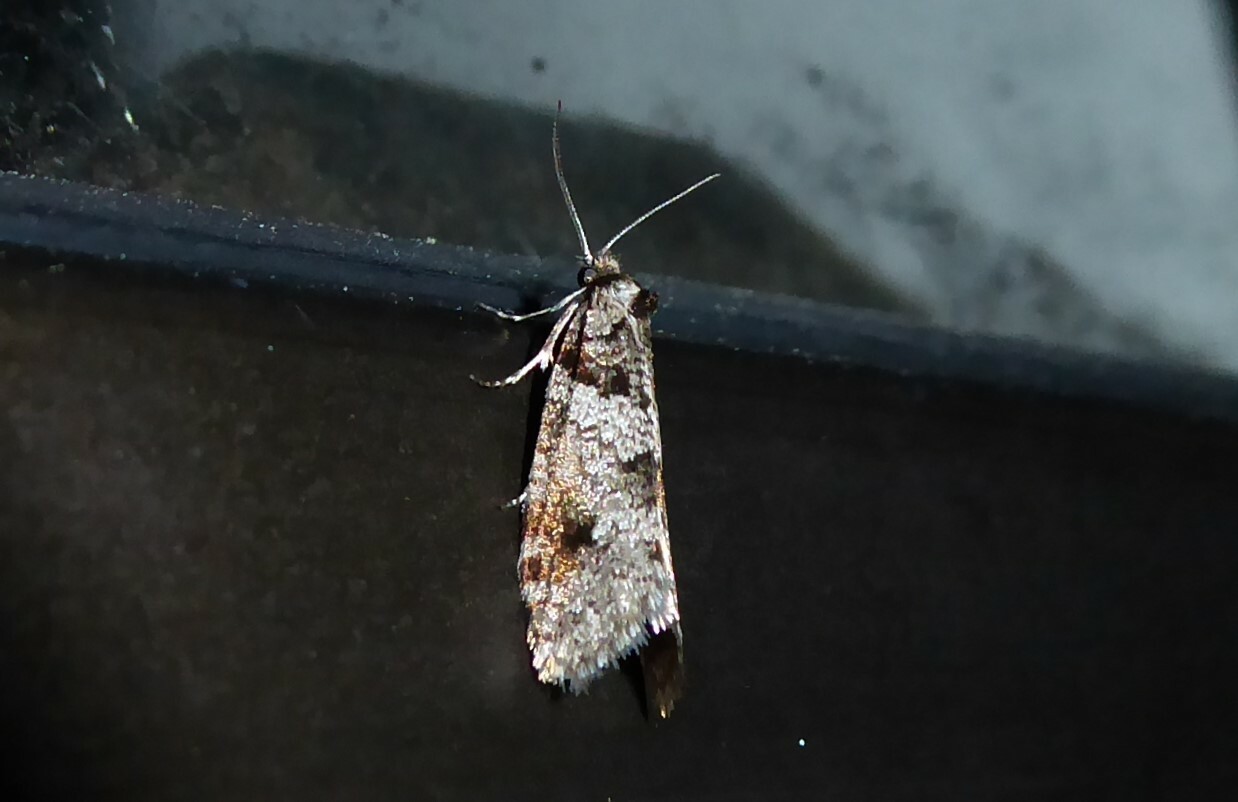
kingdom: Animalia
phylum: Arthropoda
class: Insecta
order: Lepidoptera
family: Psychidae
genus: Lepidoscia
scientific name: Lepidoscia heliochares
